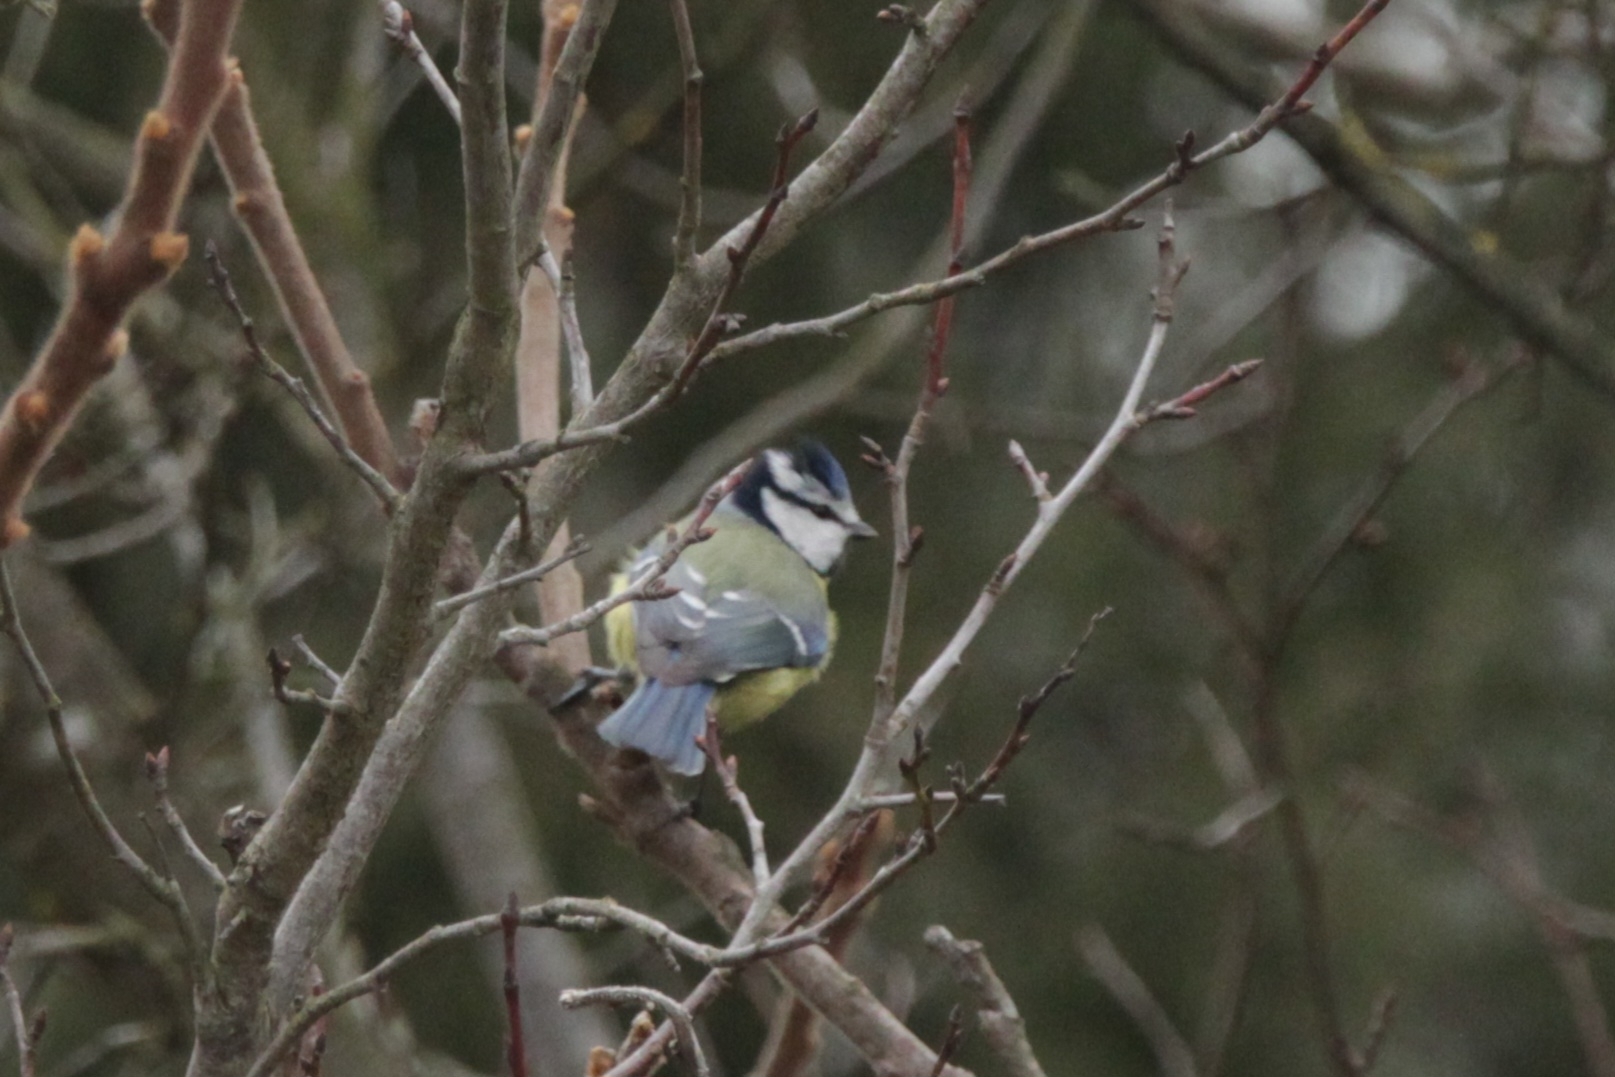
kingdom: Animalia
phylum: Chordata
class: Aves
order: Passeriformes
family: Paridae
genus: Cyanistes
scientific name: Cyanistes caeruleus
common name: Eurasian blue tit
